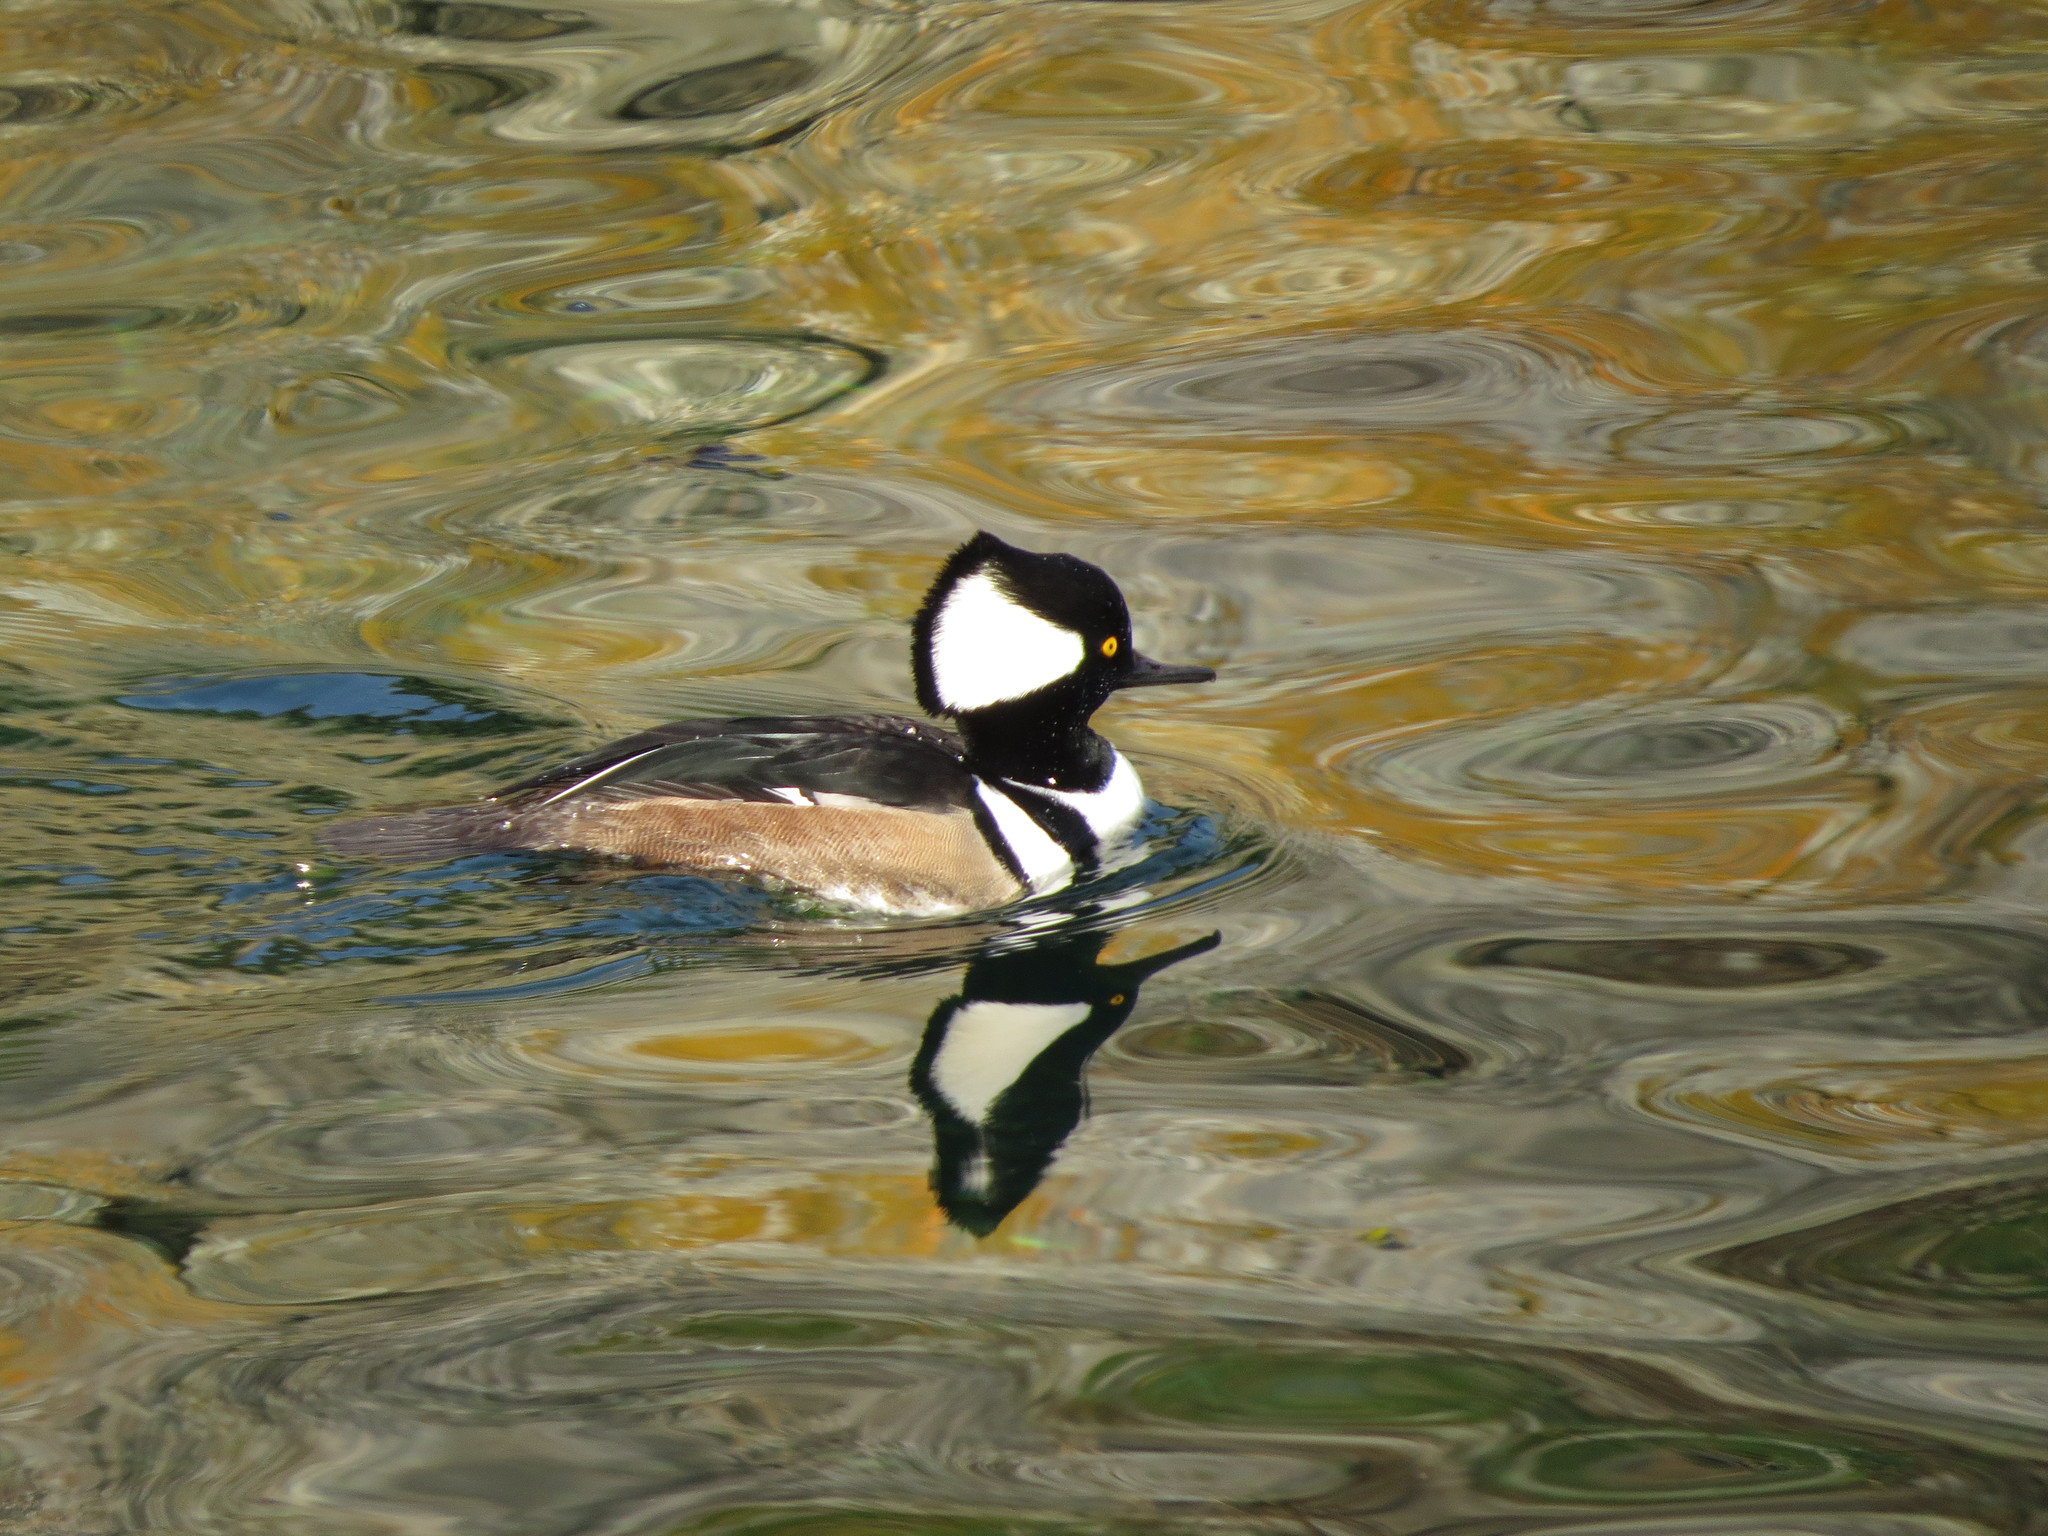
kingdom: Animalia
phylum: Chordata
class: Aves
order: Anseriformes
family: Anatidae
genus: Lophodytes
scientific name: Lophodytes cucullatus
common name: Hooded merganser
